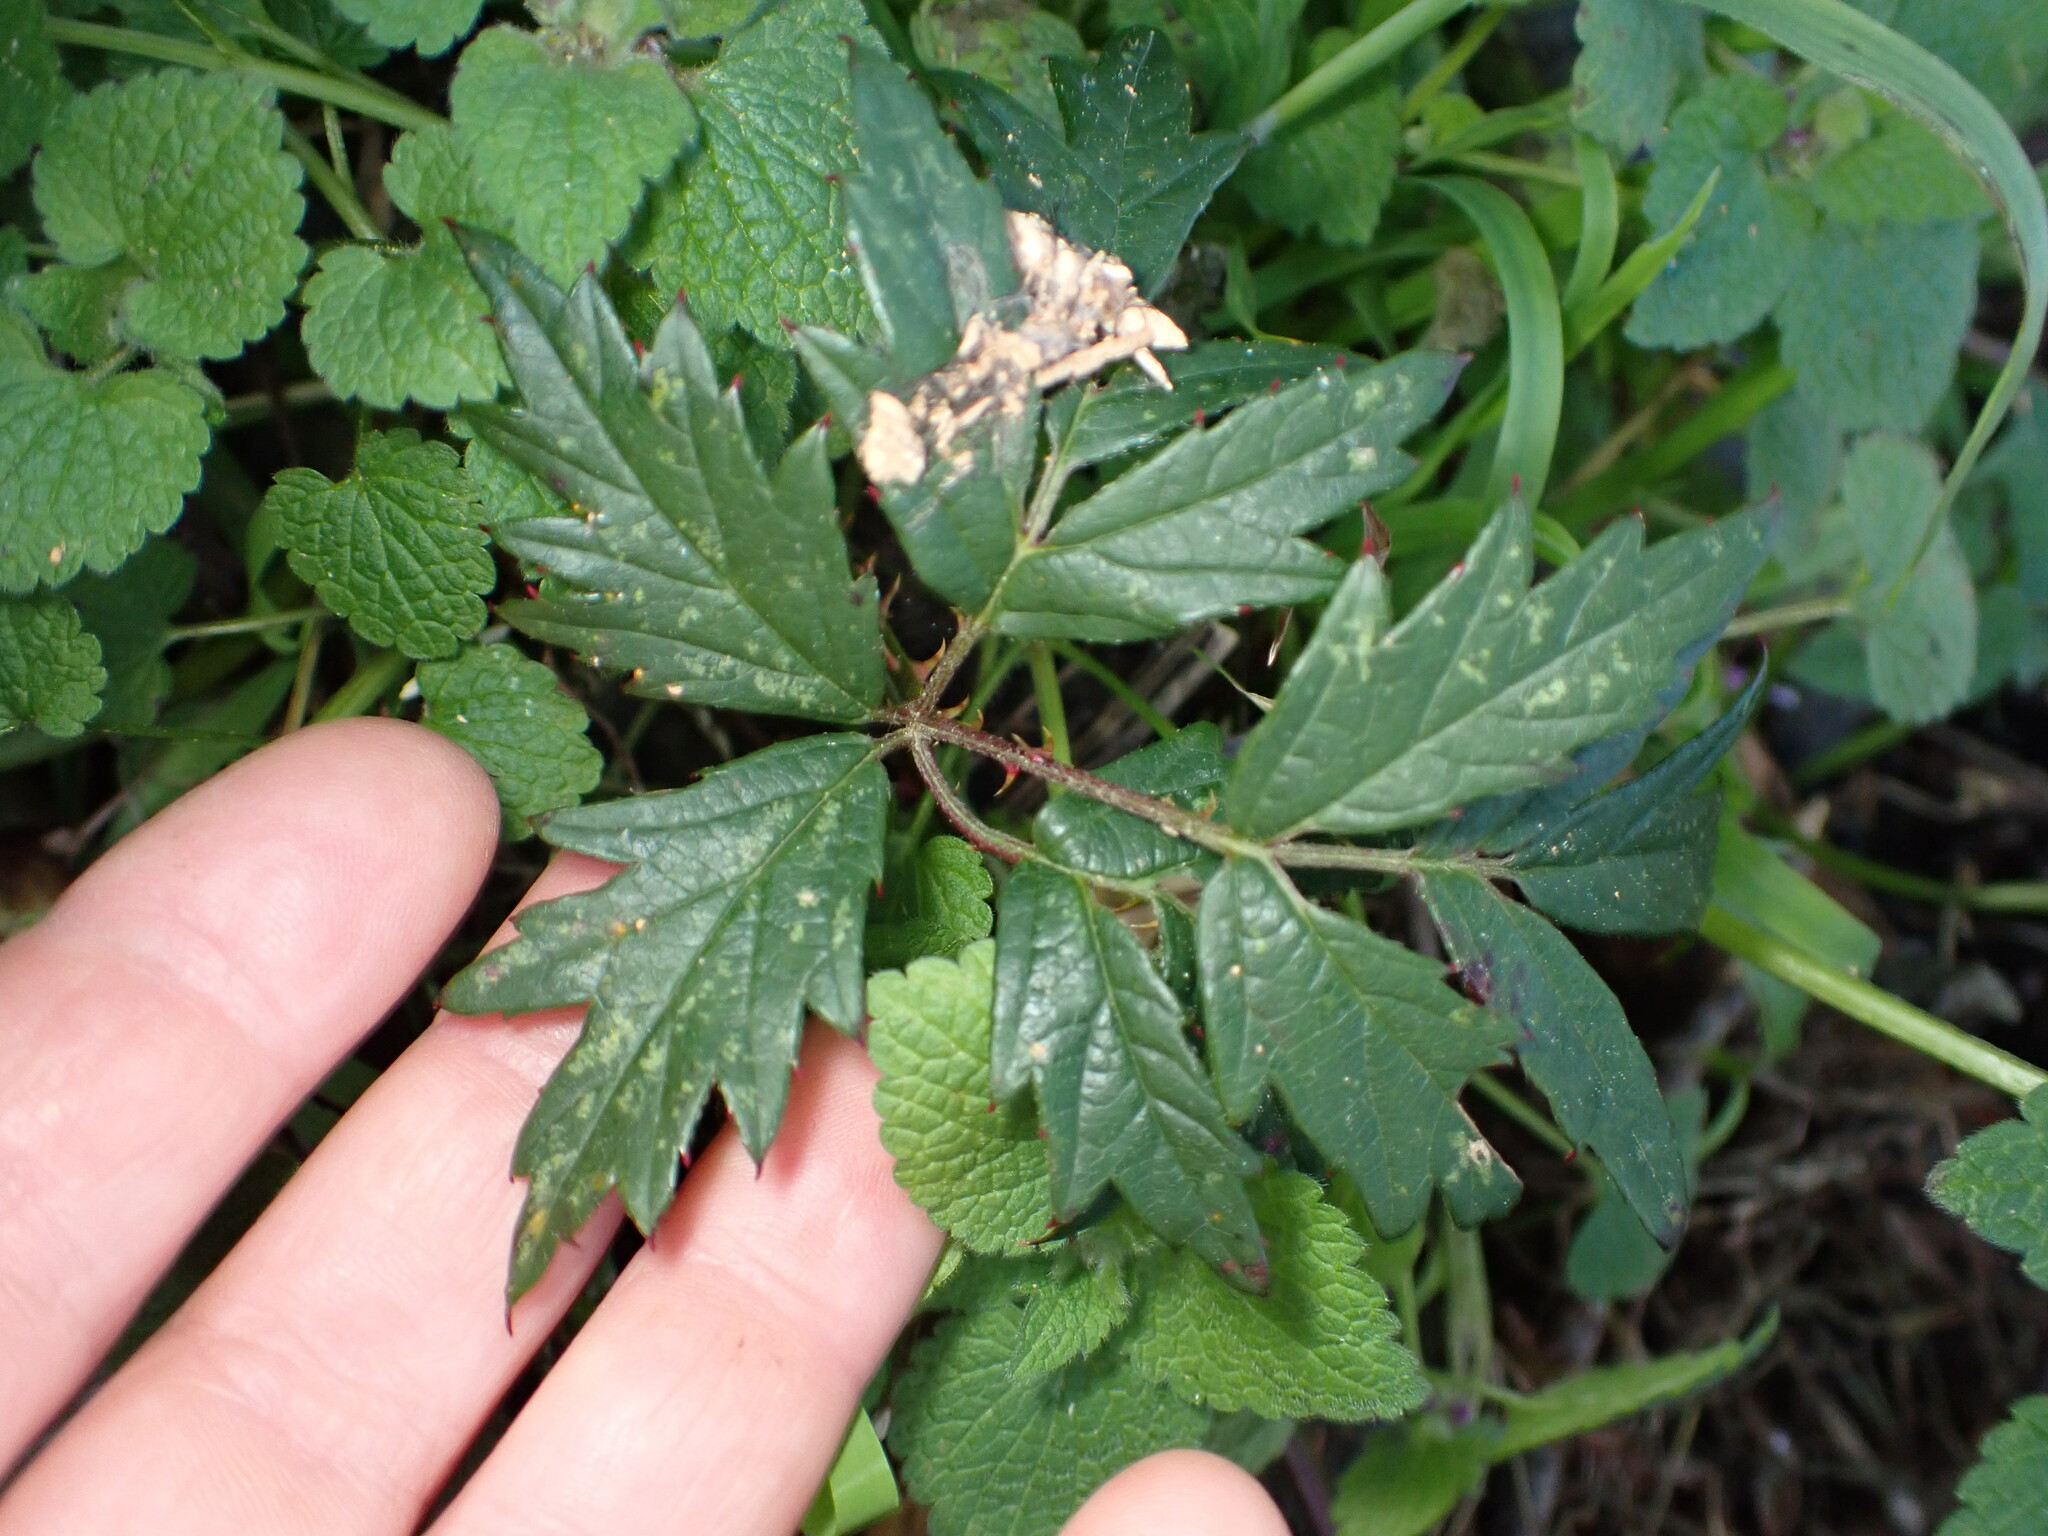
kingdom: Plantae
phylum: Tracheophyta
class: Magnoliopsida
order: Rosales
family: Rosaceae
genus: Rubus
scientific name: Rubus laciniatus
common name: Evergreen blackberry
